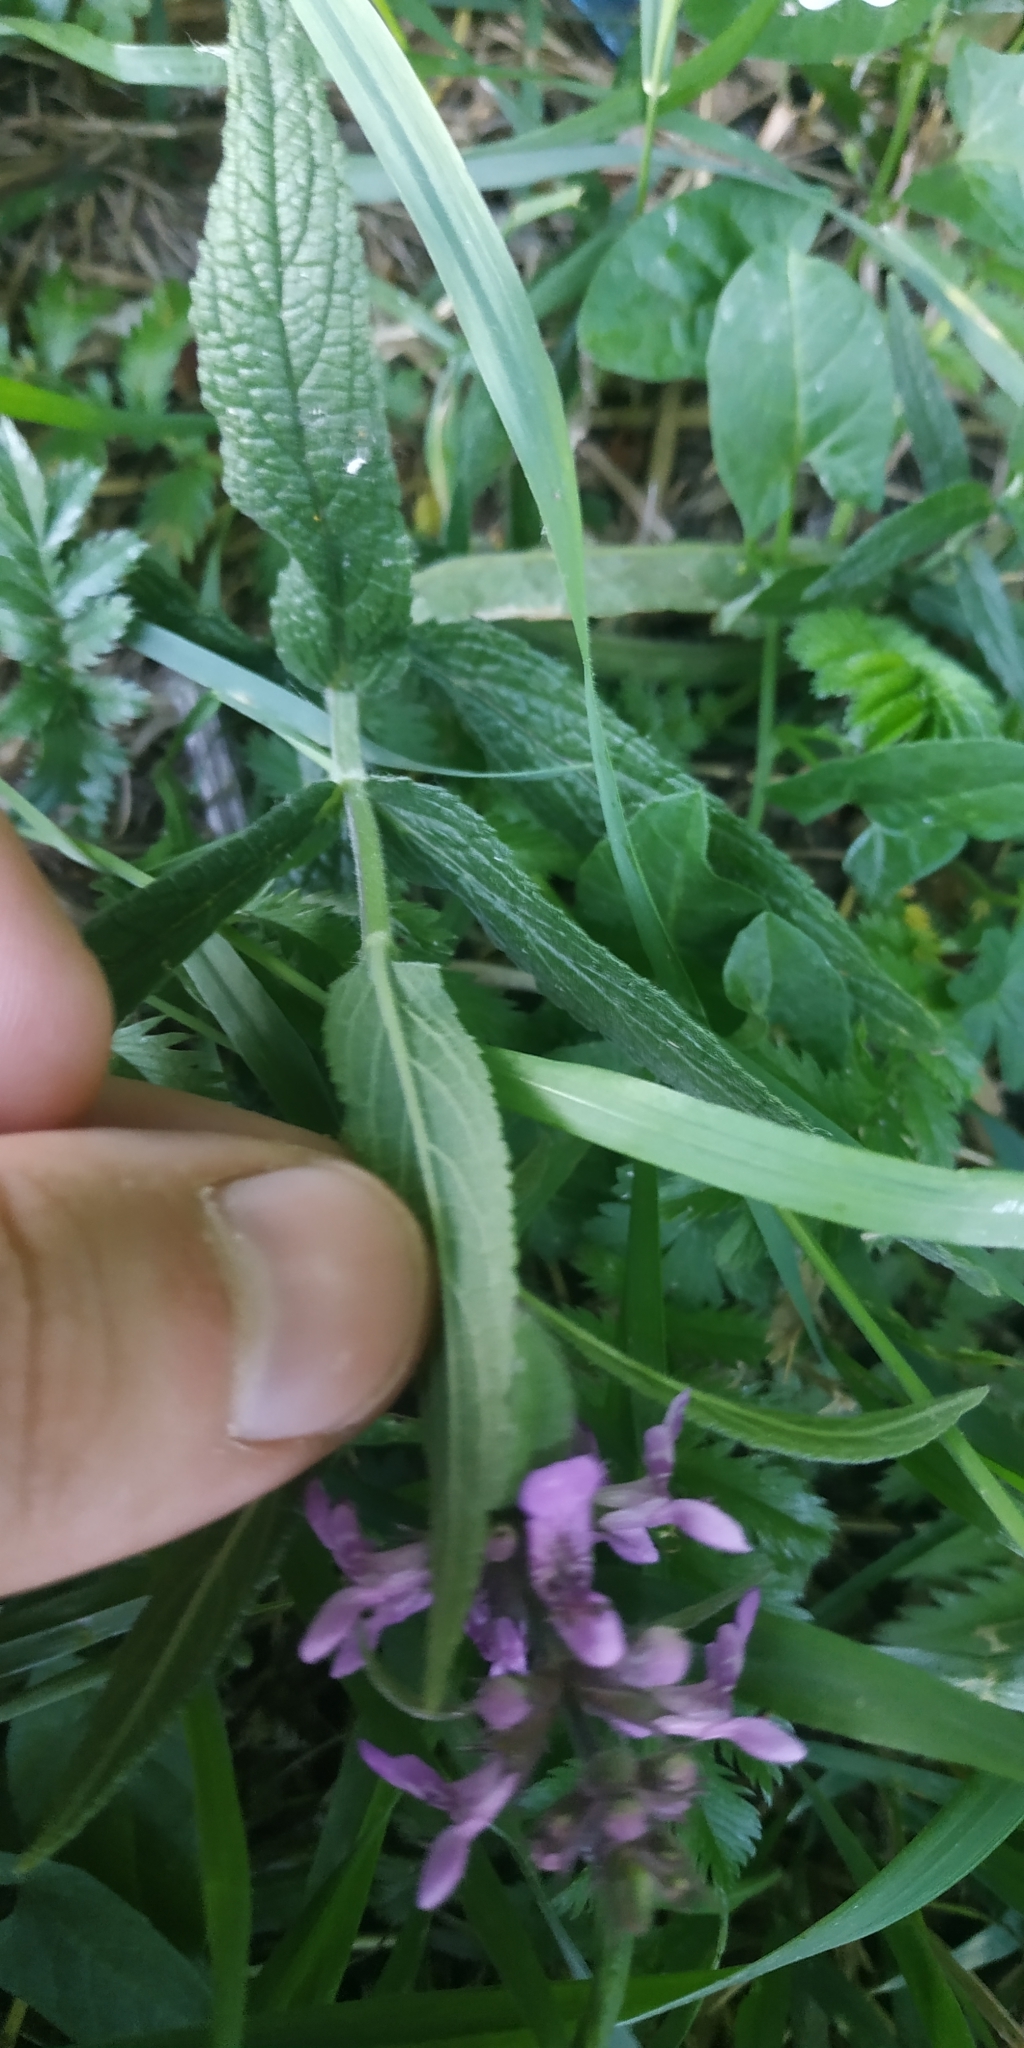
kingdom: Plantae
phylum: Tracheophyta
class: Magnoliopsida
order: Lamiales
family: Lamiaceae
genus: Stachys
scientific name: Stachys palustris
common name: Marsh woundwort
